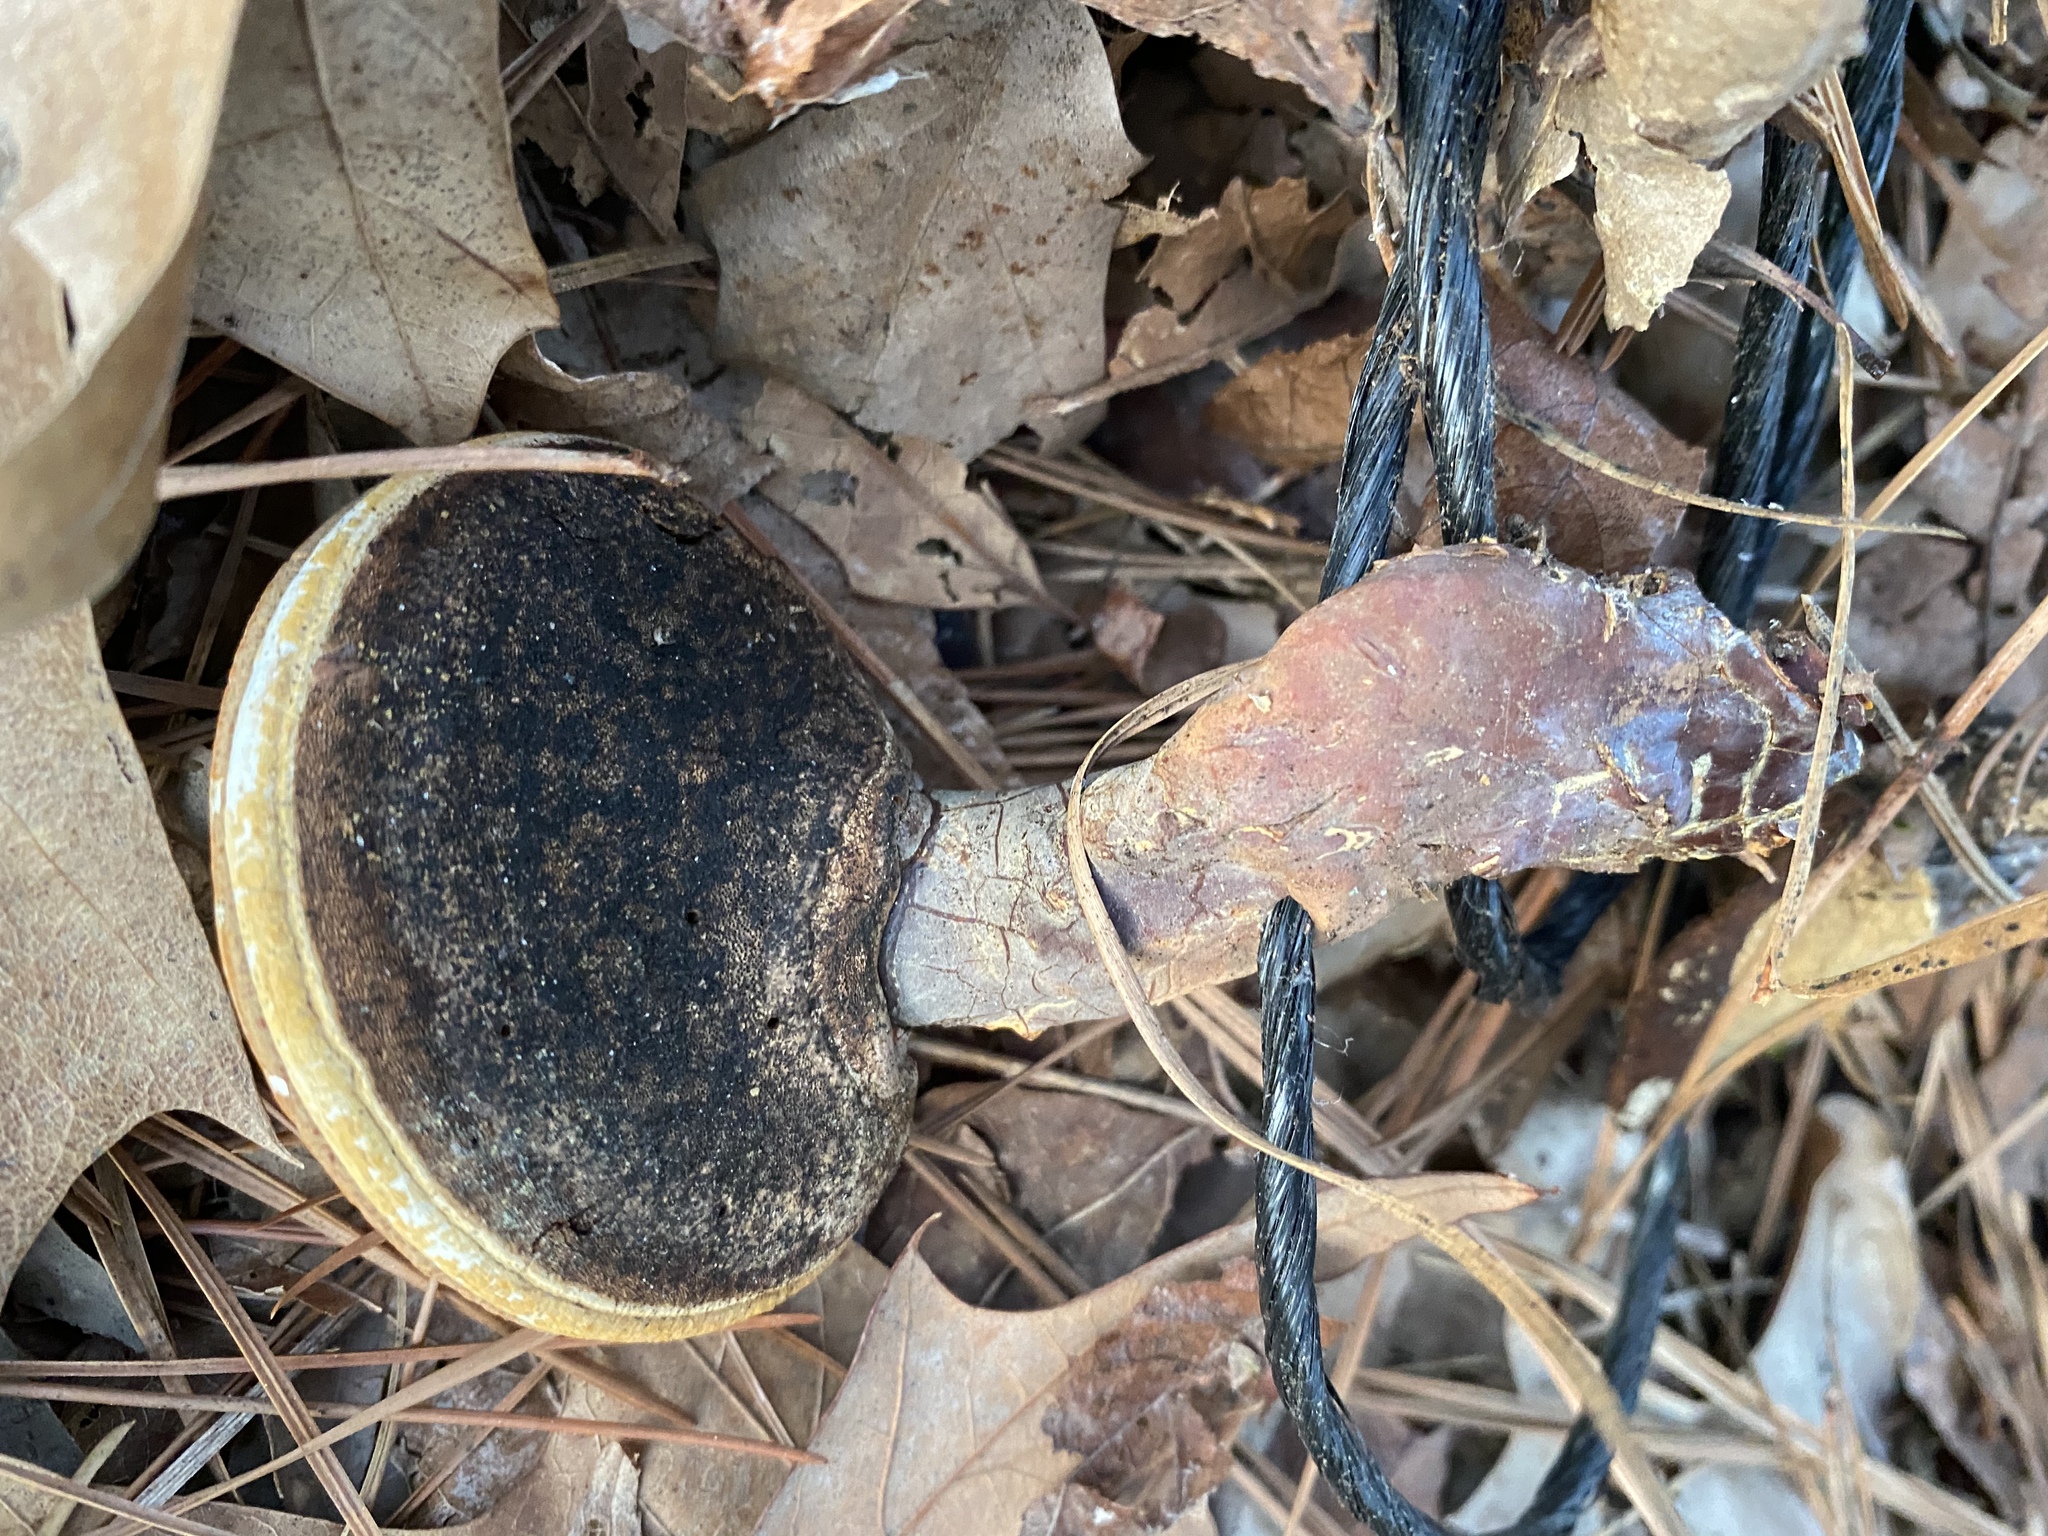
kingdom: Fungi
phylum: Basidiomycota
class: Agaricomycetes
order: Polyporales
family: Polyporaceae
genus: Ganoderma
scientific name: Ganoderma curtisii
